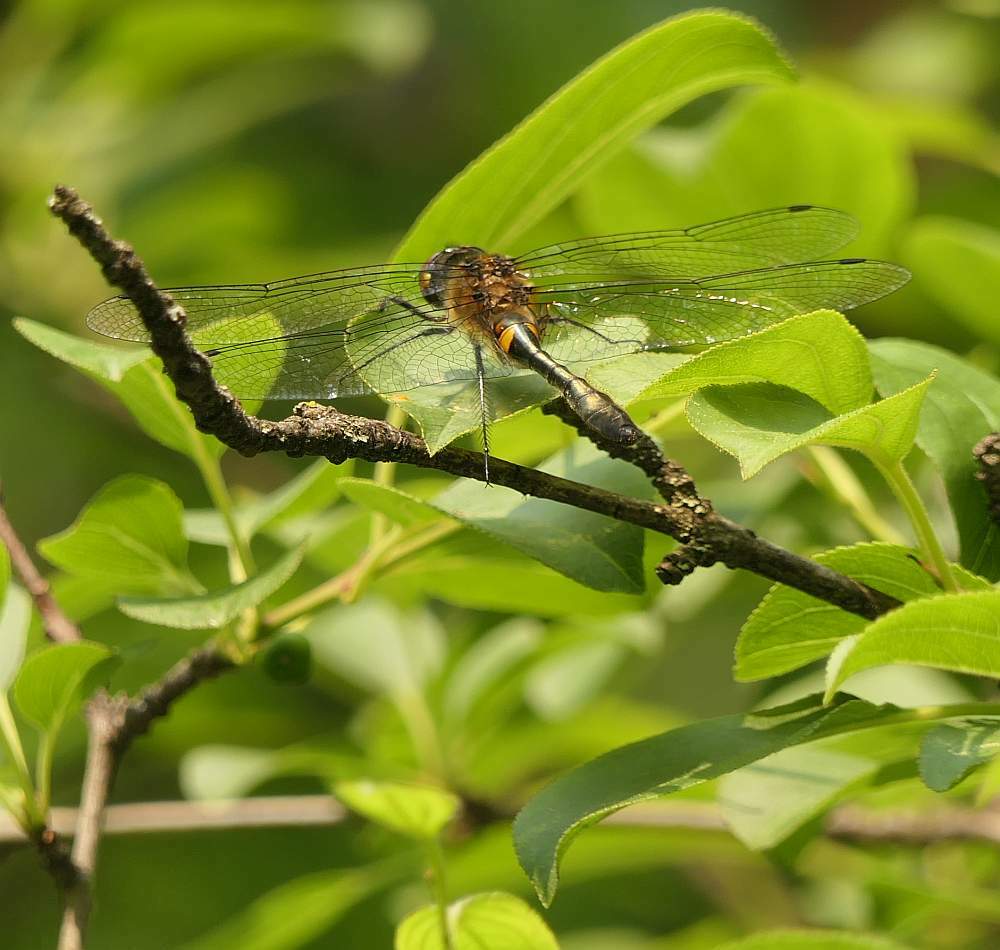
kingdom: Animalia
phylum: Arthropoda
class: Insecta
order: Odonata
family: Corduliidae
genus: Dorocordulia
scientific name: Dorocordulia libera
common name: Racket-tailed emerald
